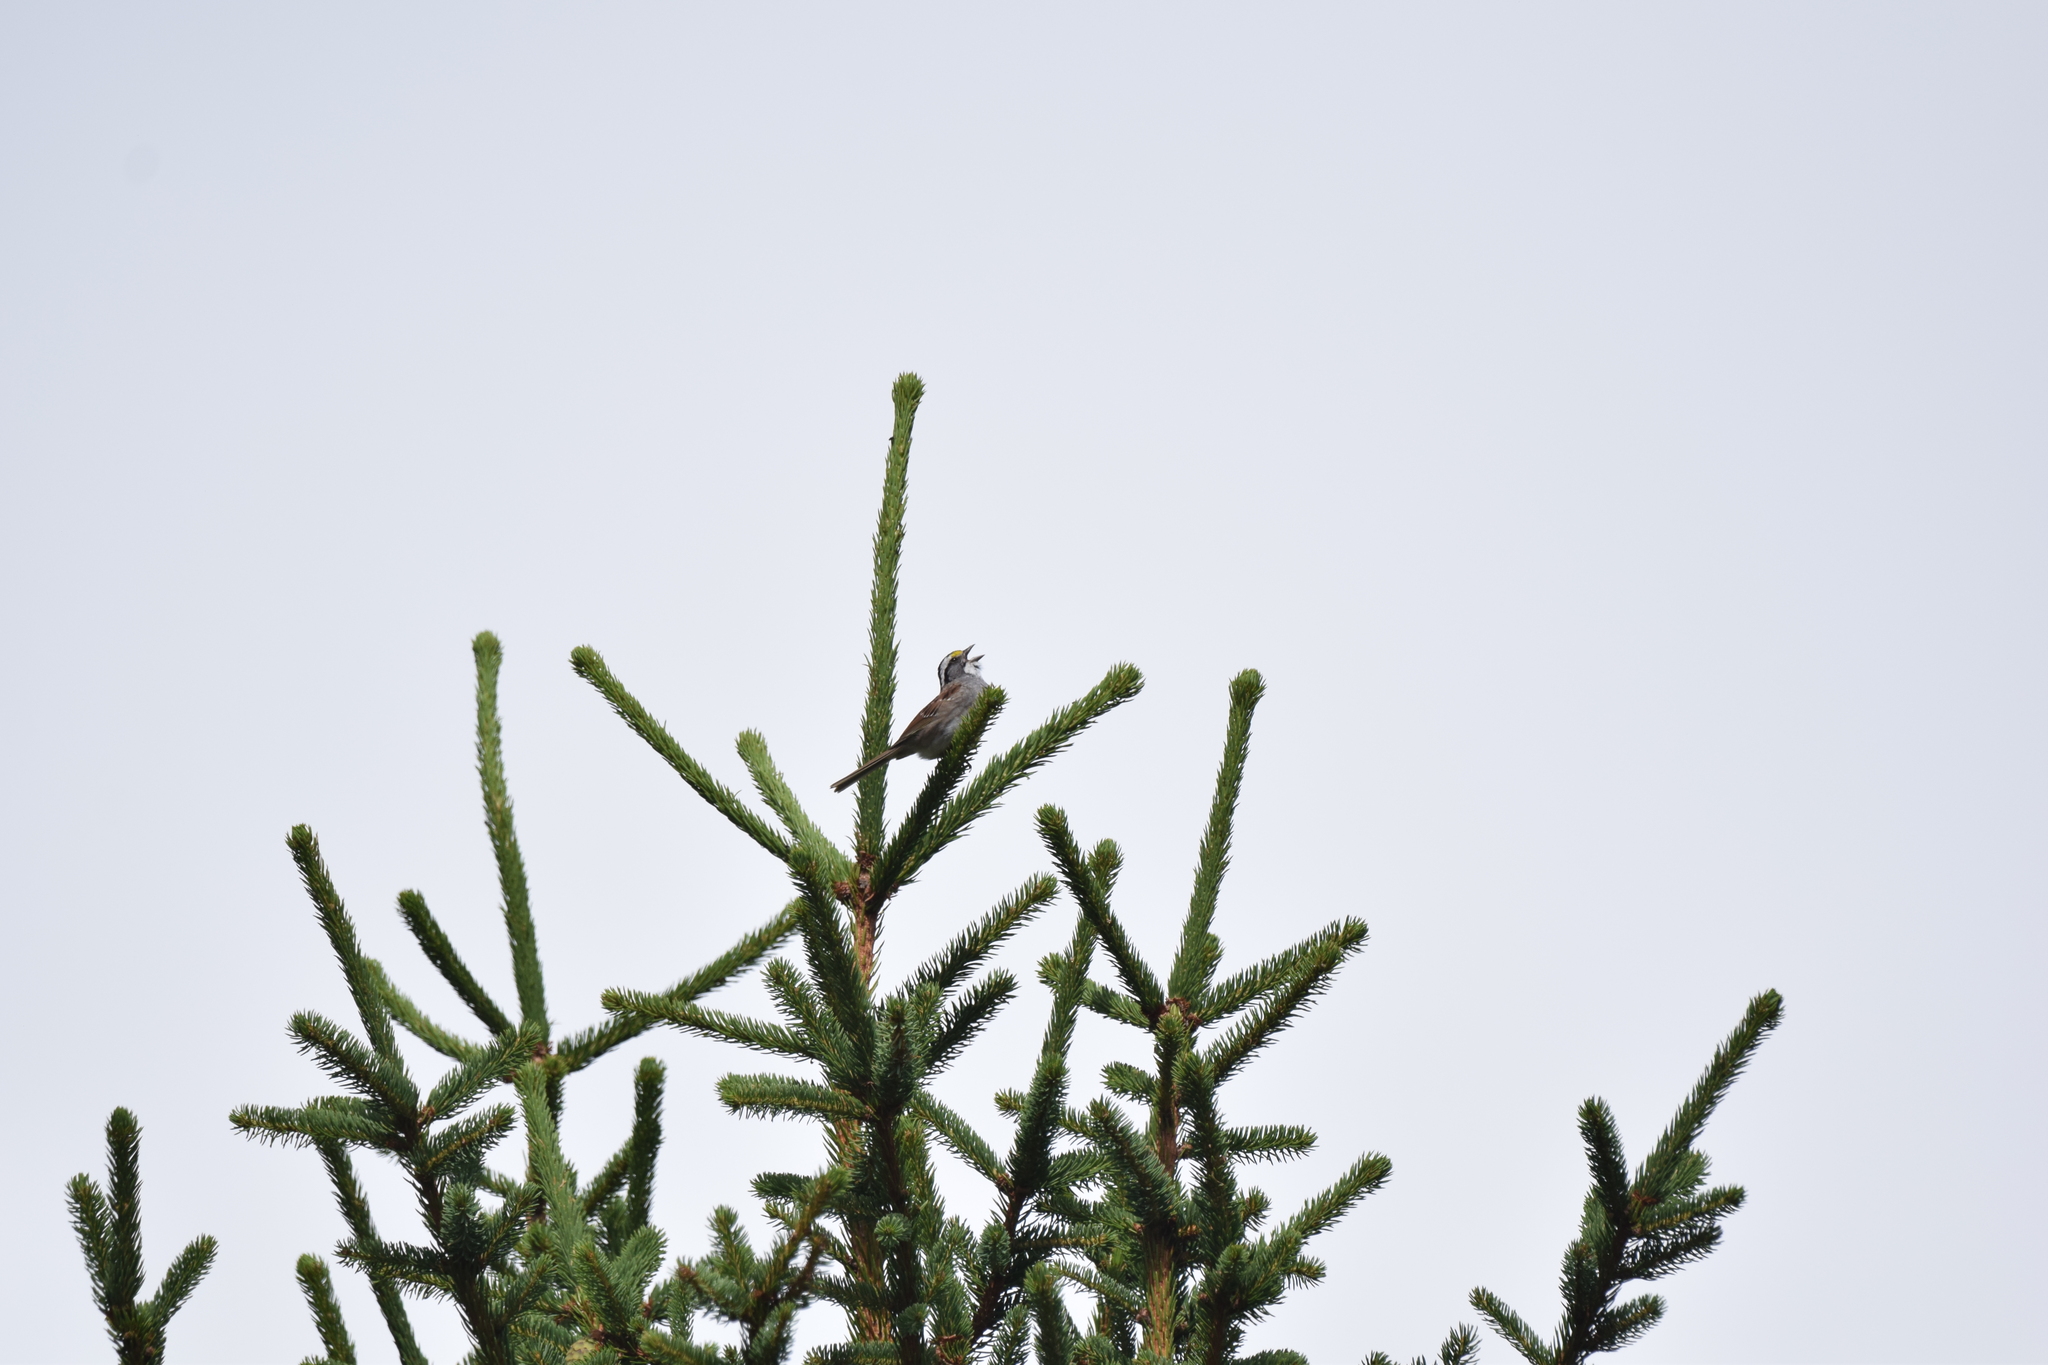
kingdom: Animalia
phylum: Chordata
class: Aves
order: Passeriformes
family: Passerellidae
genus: Zonotrichia
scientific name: Zonotrichia albicollis
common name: White-throated sparrow
